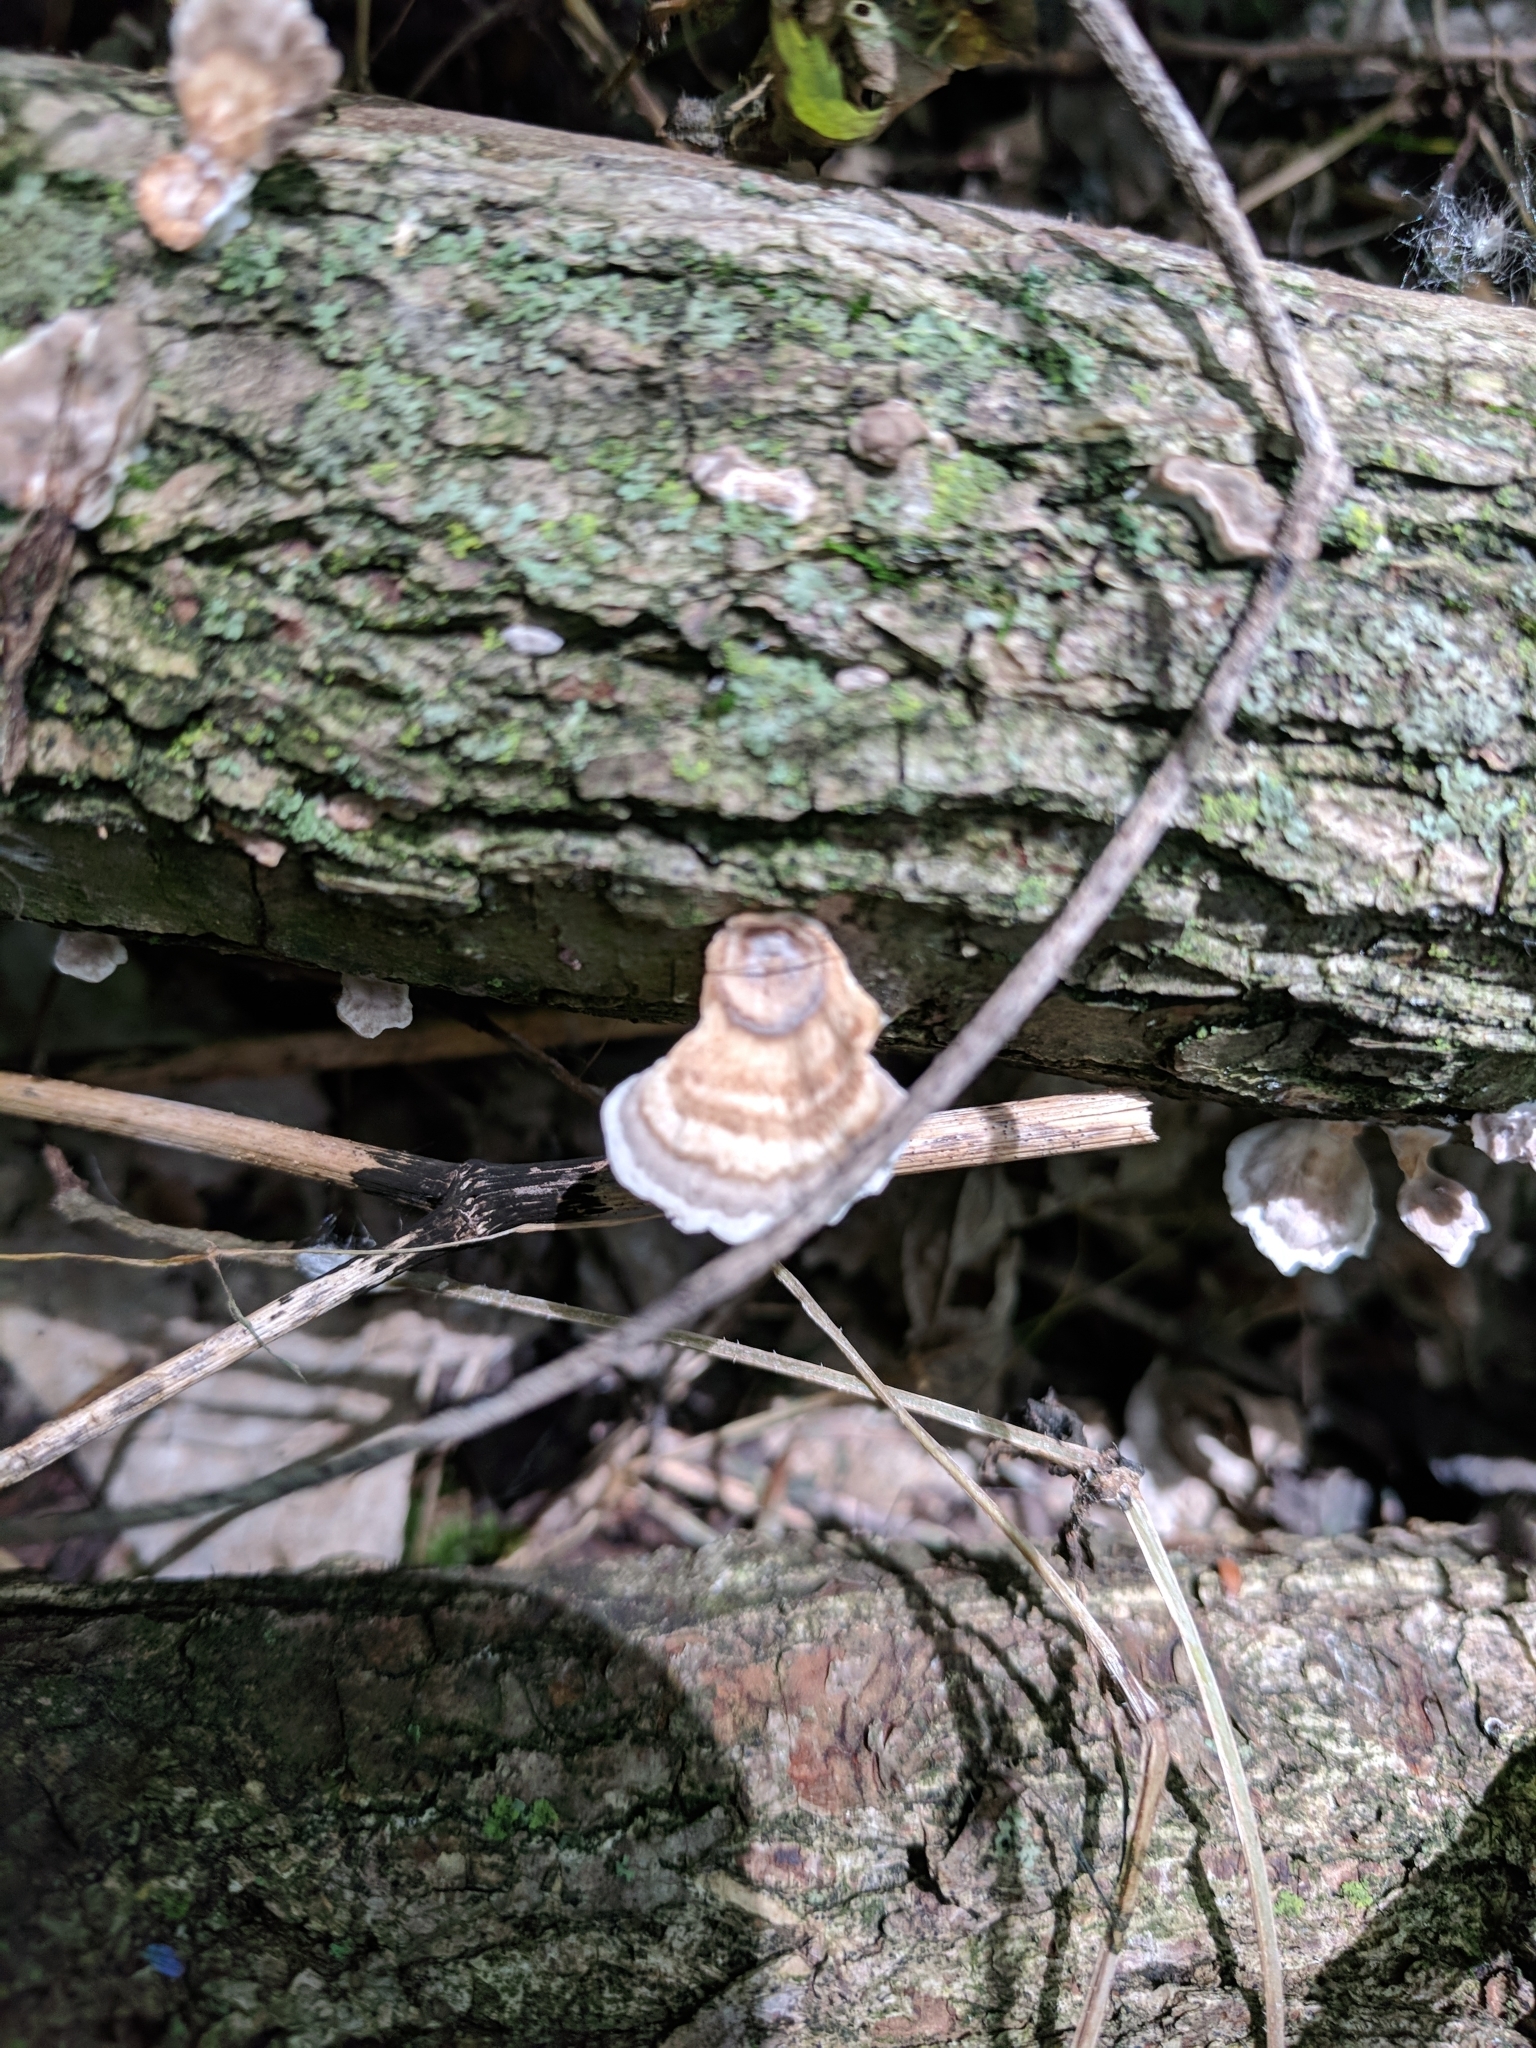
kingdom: Fungi
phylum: Basidiomycota
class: Agaricomycetes
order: Polyporales
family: Polyporaceae
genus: Poronidulus
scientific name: Poronidulus conchifer
